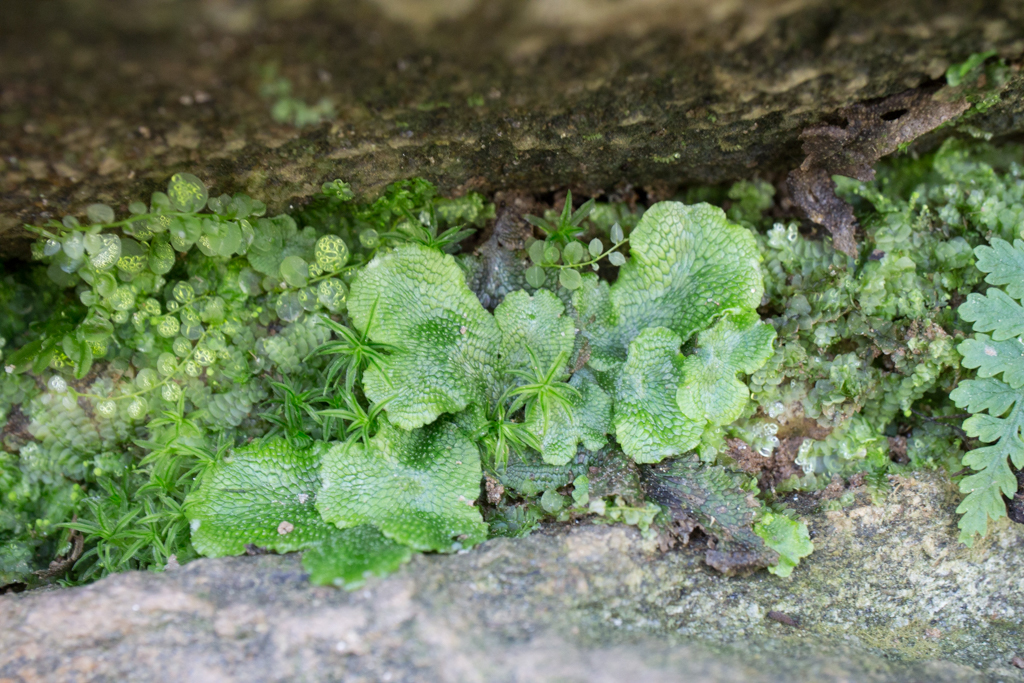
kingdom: Plantae
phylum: Marchantiophyta
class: Marchantiopsida
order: Marchantiales
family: Conocephalaceae
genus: Conocephalum
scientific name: Conocephalum salebrosum
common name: Cat-tongue liverwort
